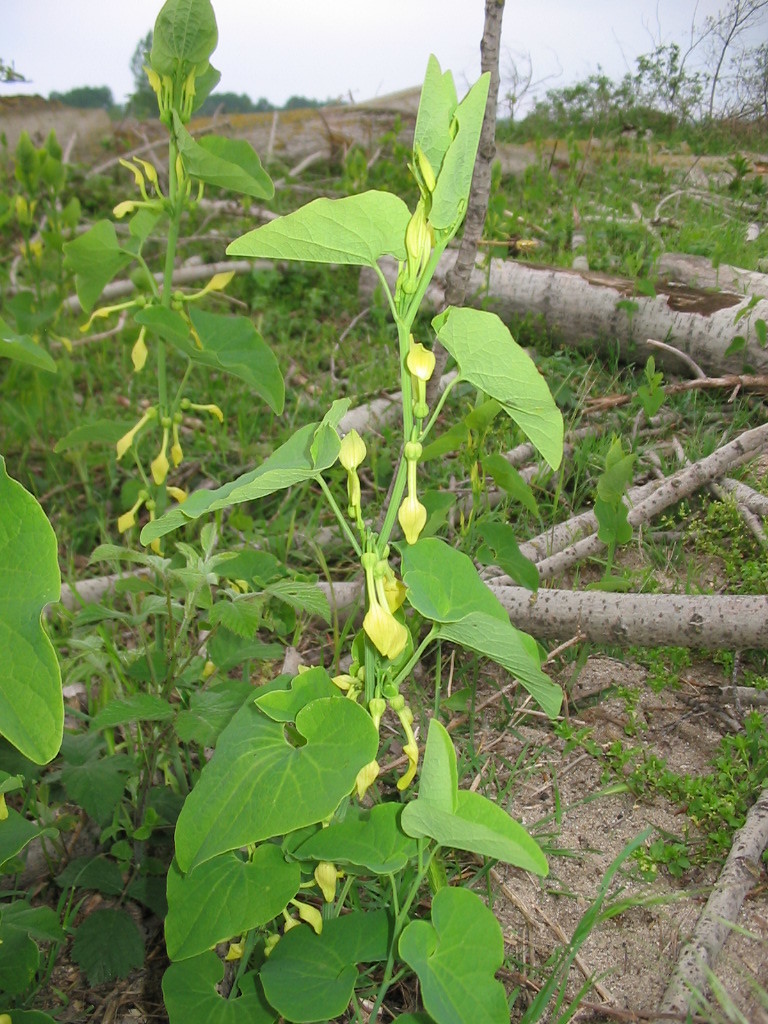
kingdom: Plantae
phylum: Tracheophyta
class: Magnoliopsida
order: Piperales
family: Aristolochiaceae
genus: Aristolochia
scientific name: Aristolochia clematitis
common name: Birthwort
